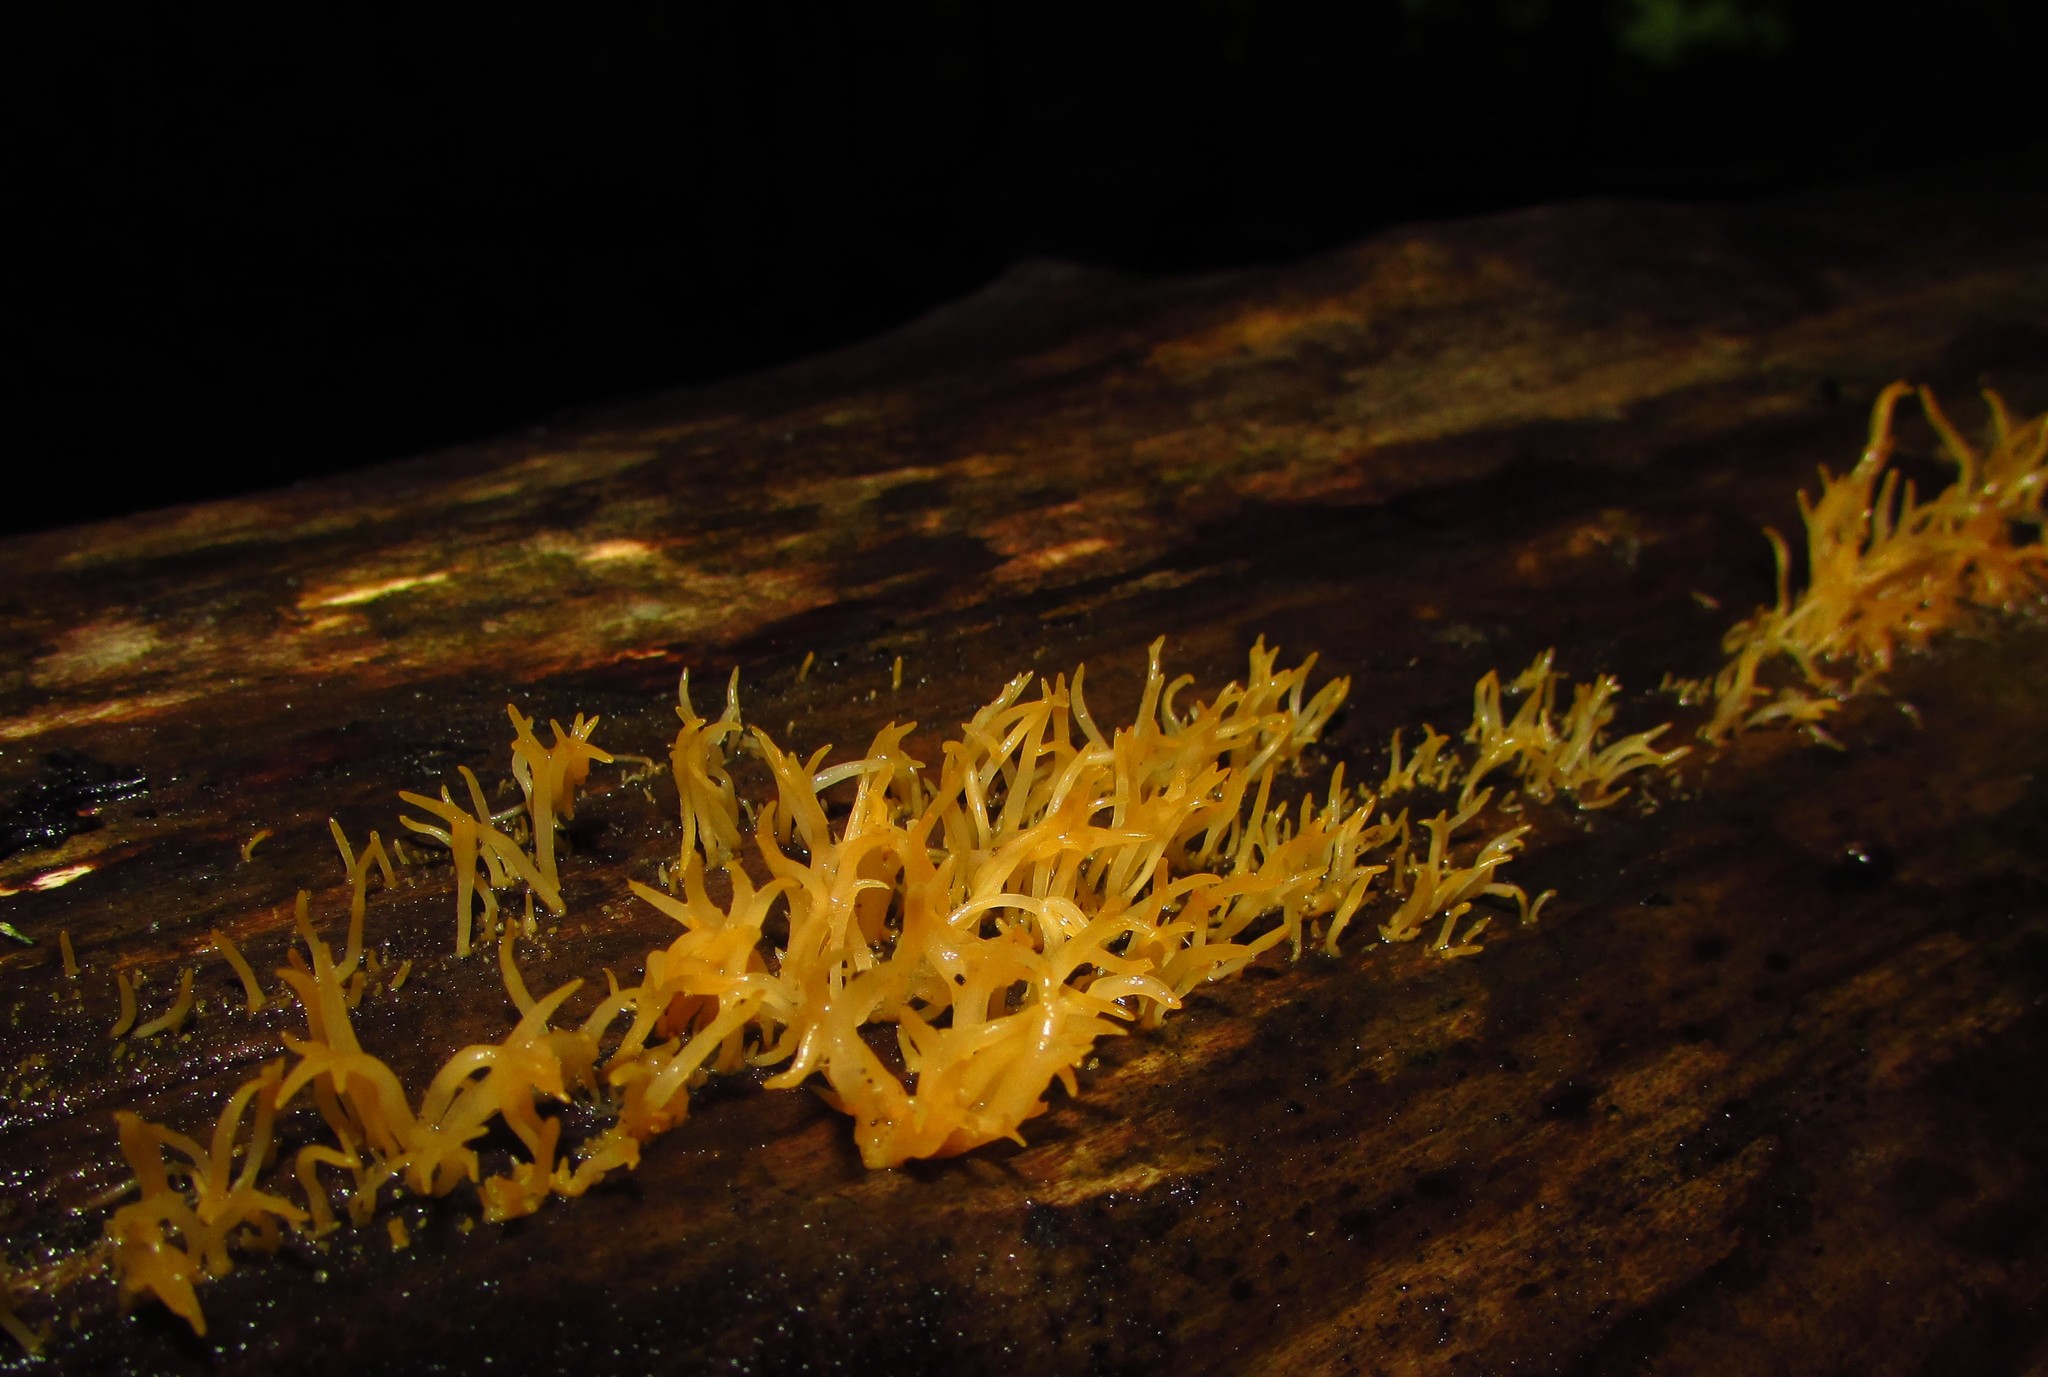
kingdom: Fungi
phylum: Basidiomycota
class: Dacrymycetes
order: Dacrymycetales
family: Dacrymycetaceae
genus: Calocera
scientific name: Calocera cornea
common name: Small stagshorn
